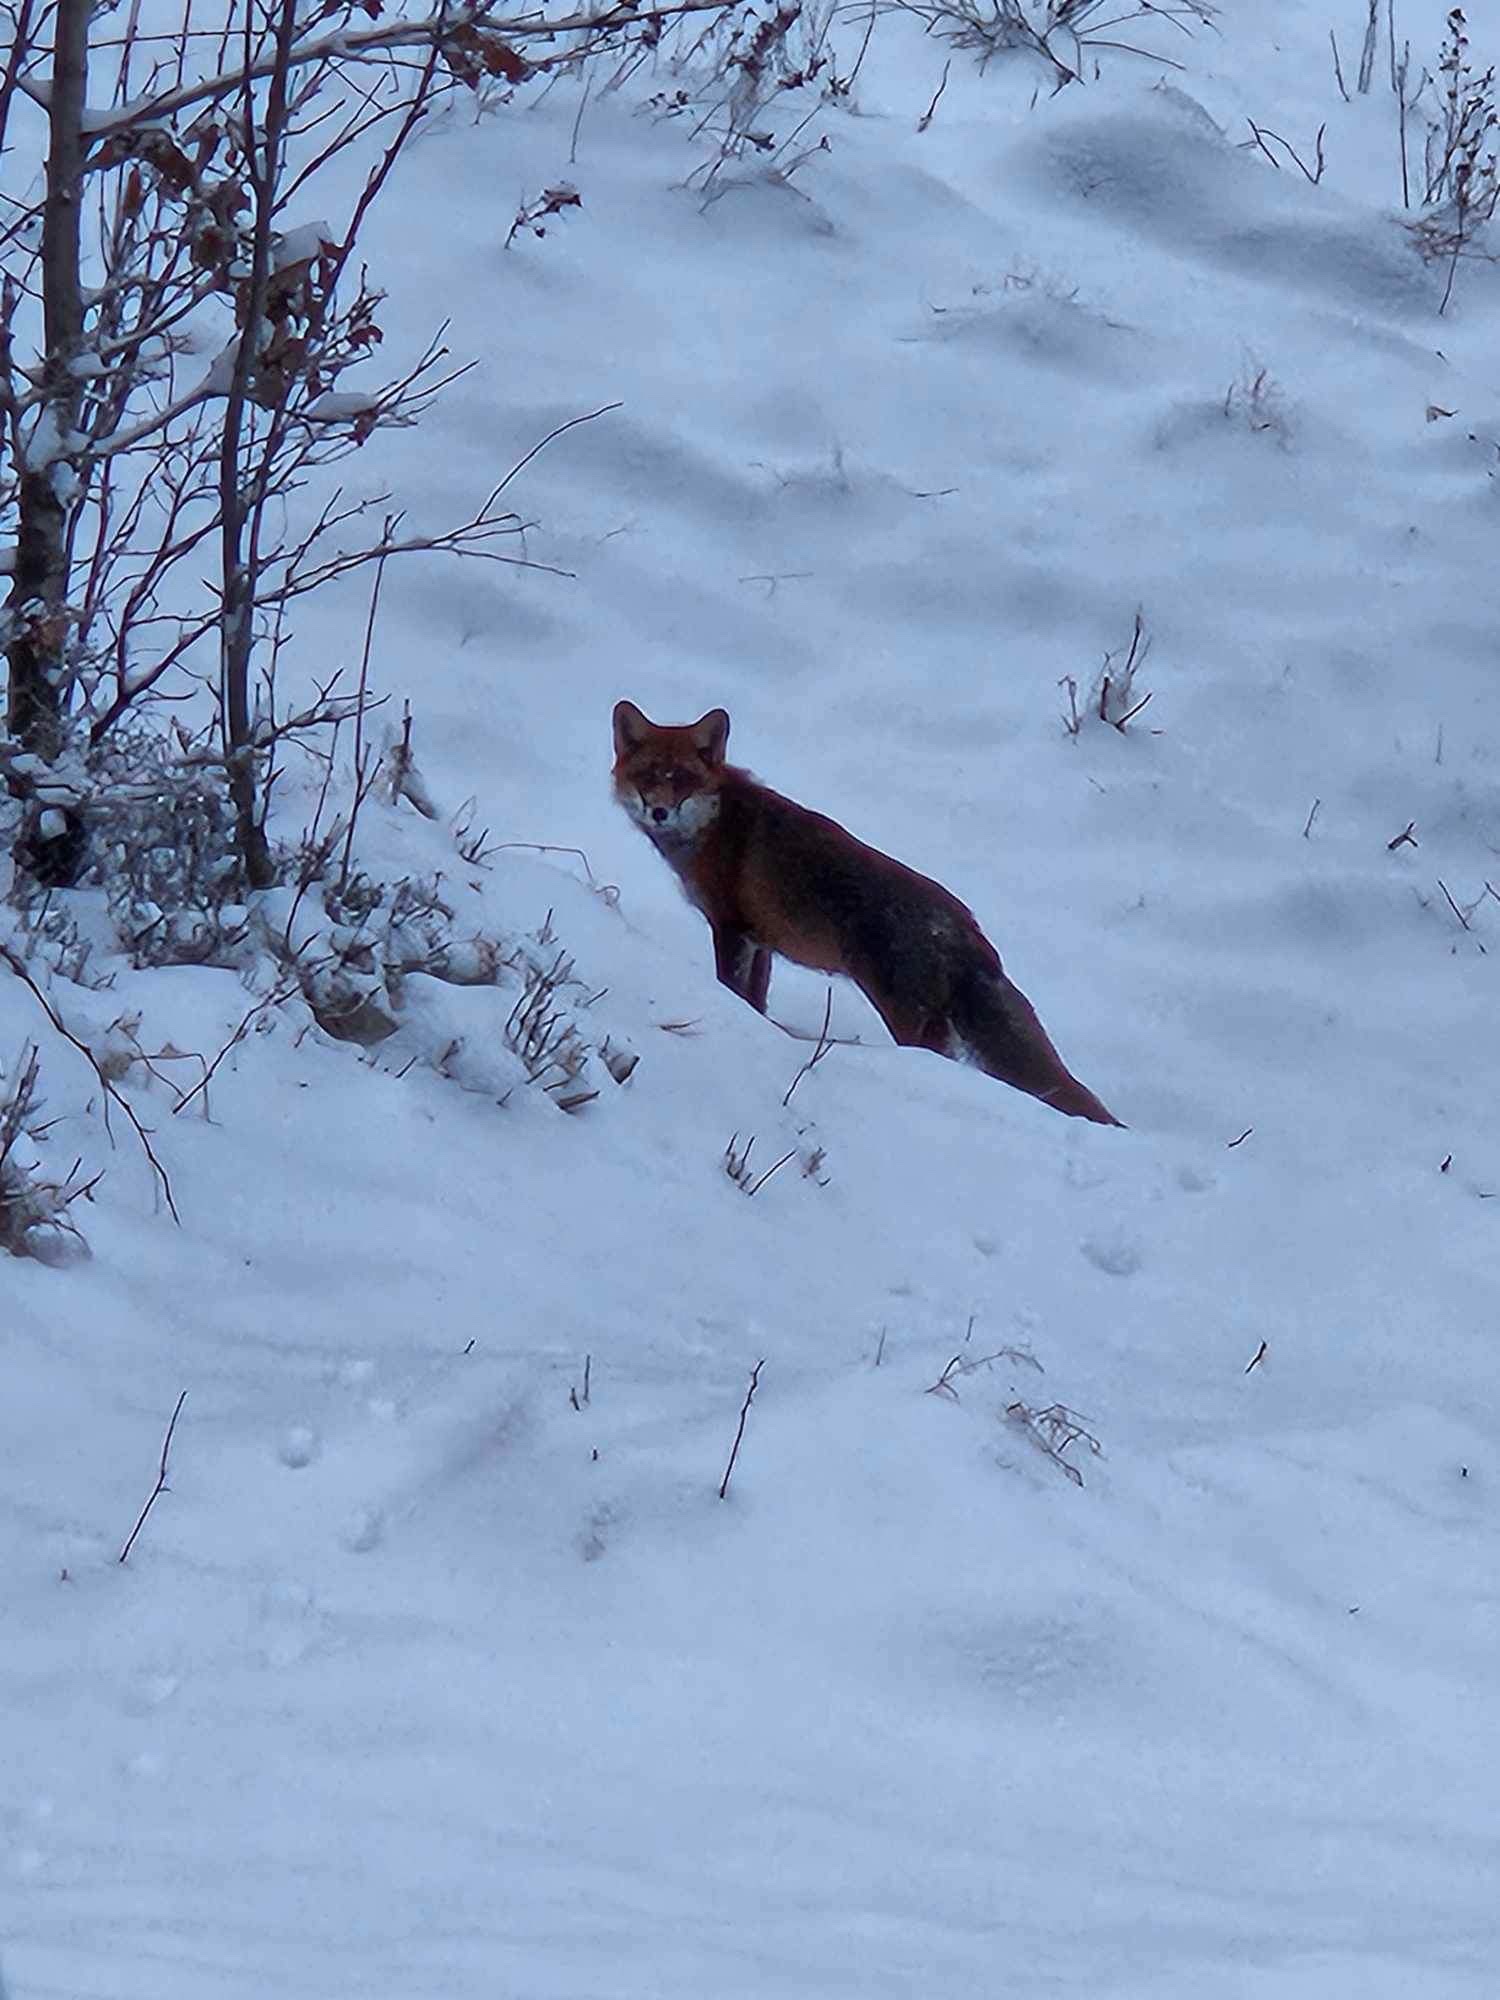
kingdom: Animalia
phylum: Chordata
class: Mammalia
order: Carnivora
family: Canidae
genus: Vulpes
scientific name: Vulpes vulpes
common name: Red fox
